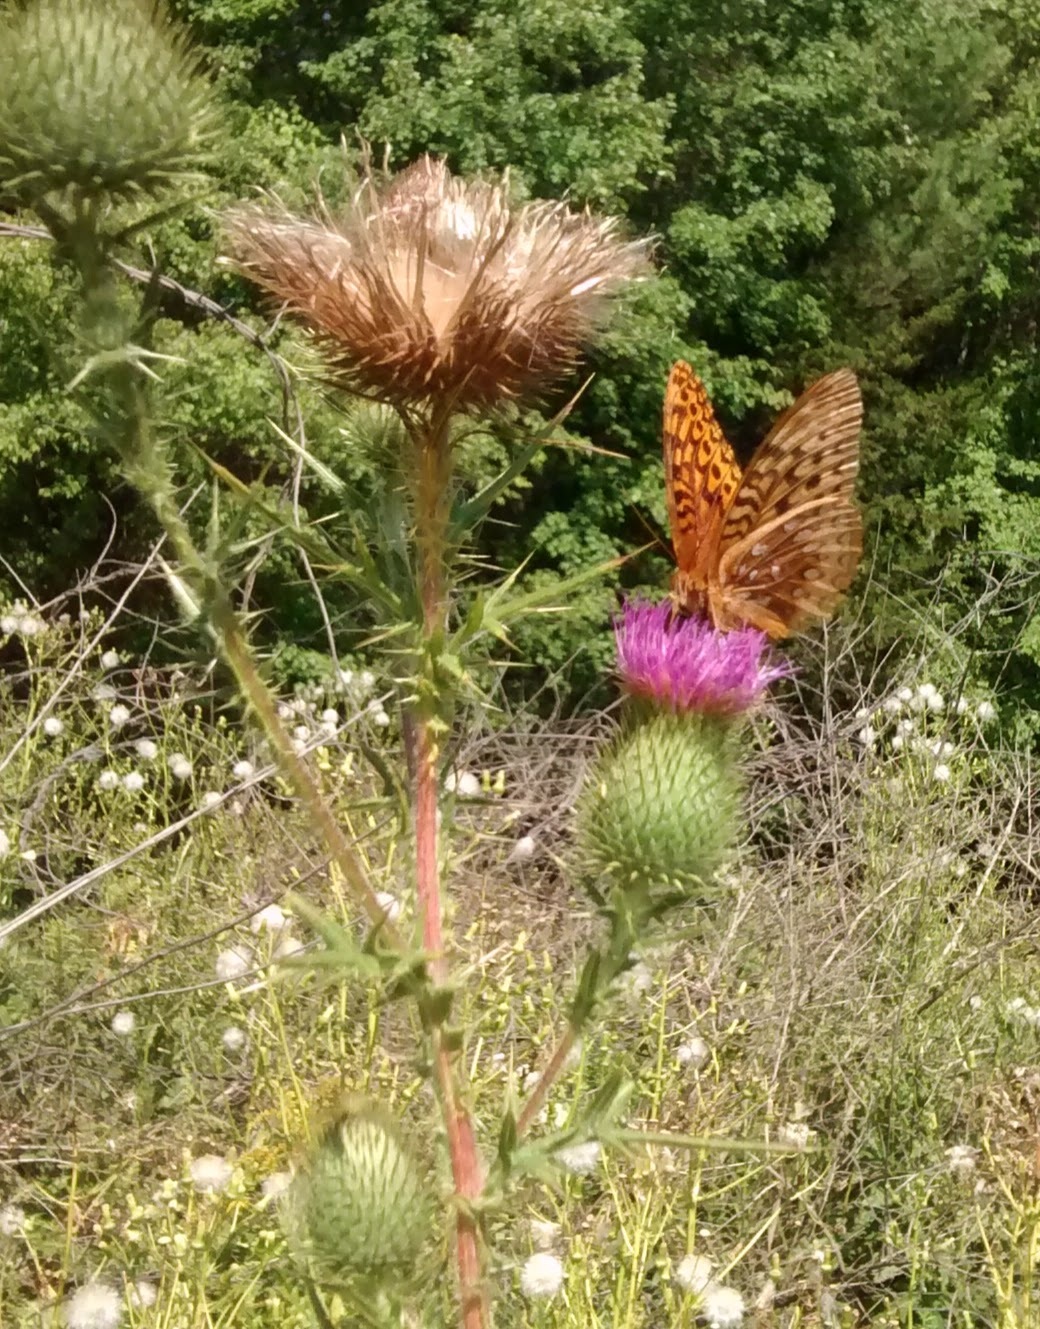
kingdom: Animalia
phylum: Arthropoda
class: Insecta
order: Lepidoptera
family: Nymphalidae
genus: Speyeria
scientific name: Speyeria cybele
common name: Great spangled fritillary
